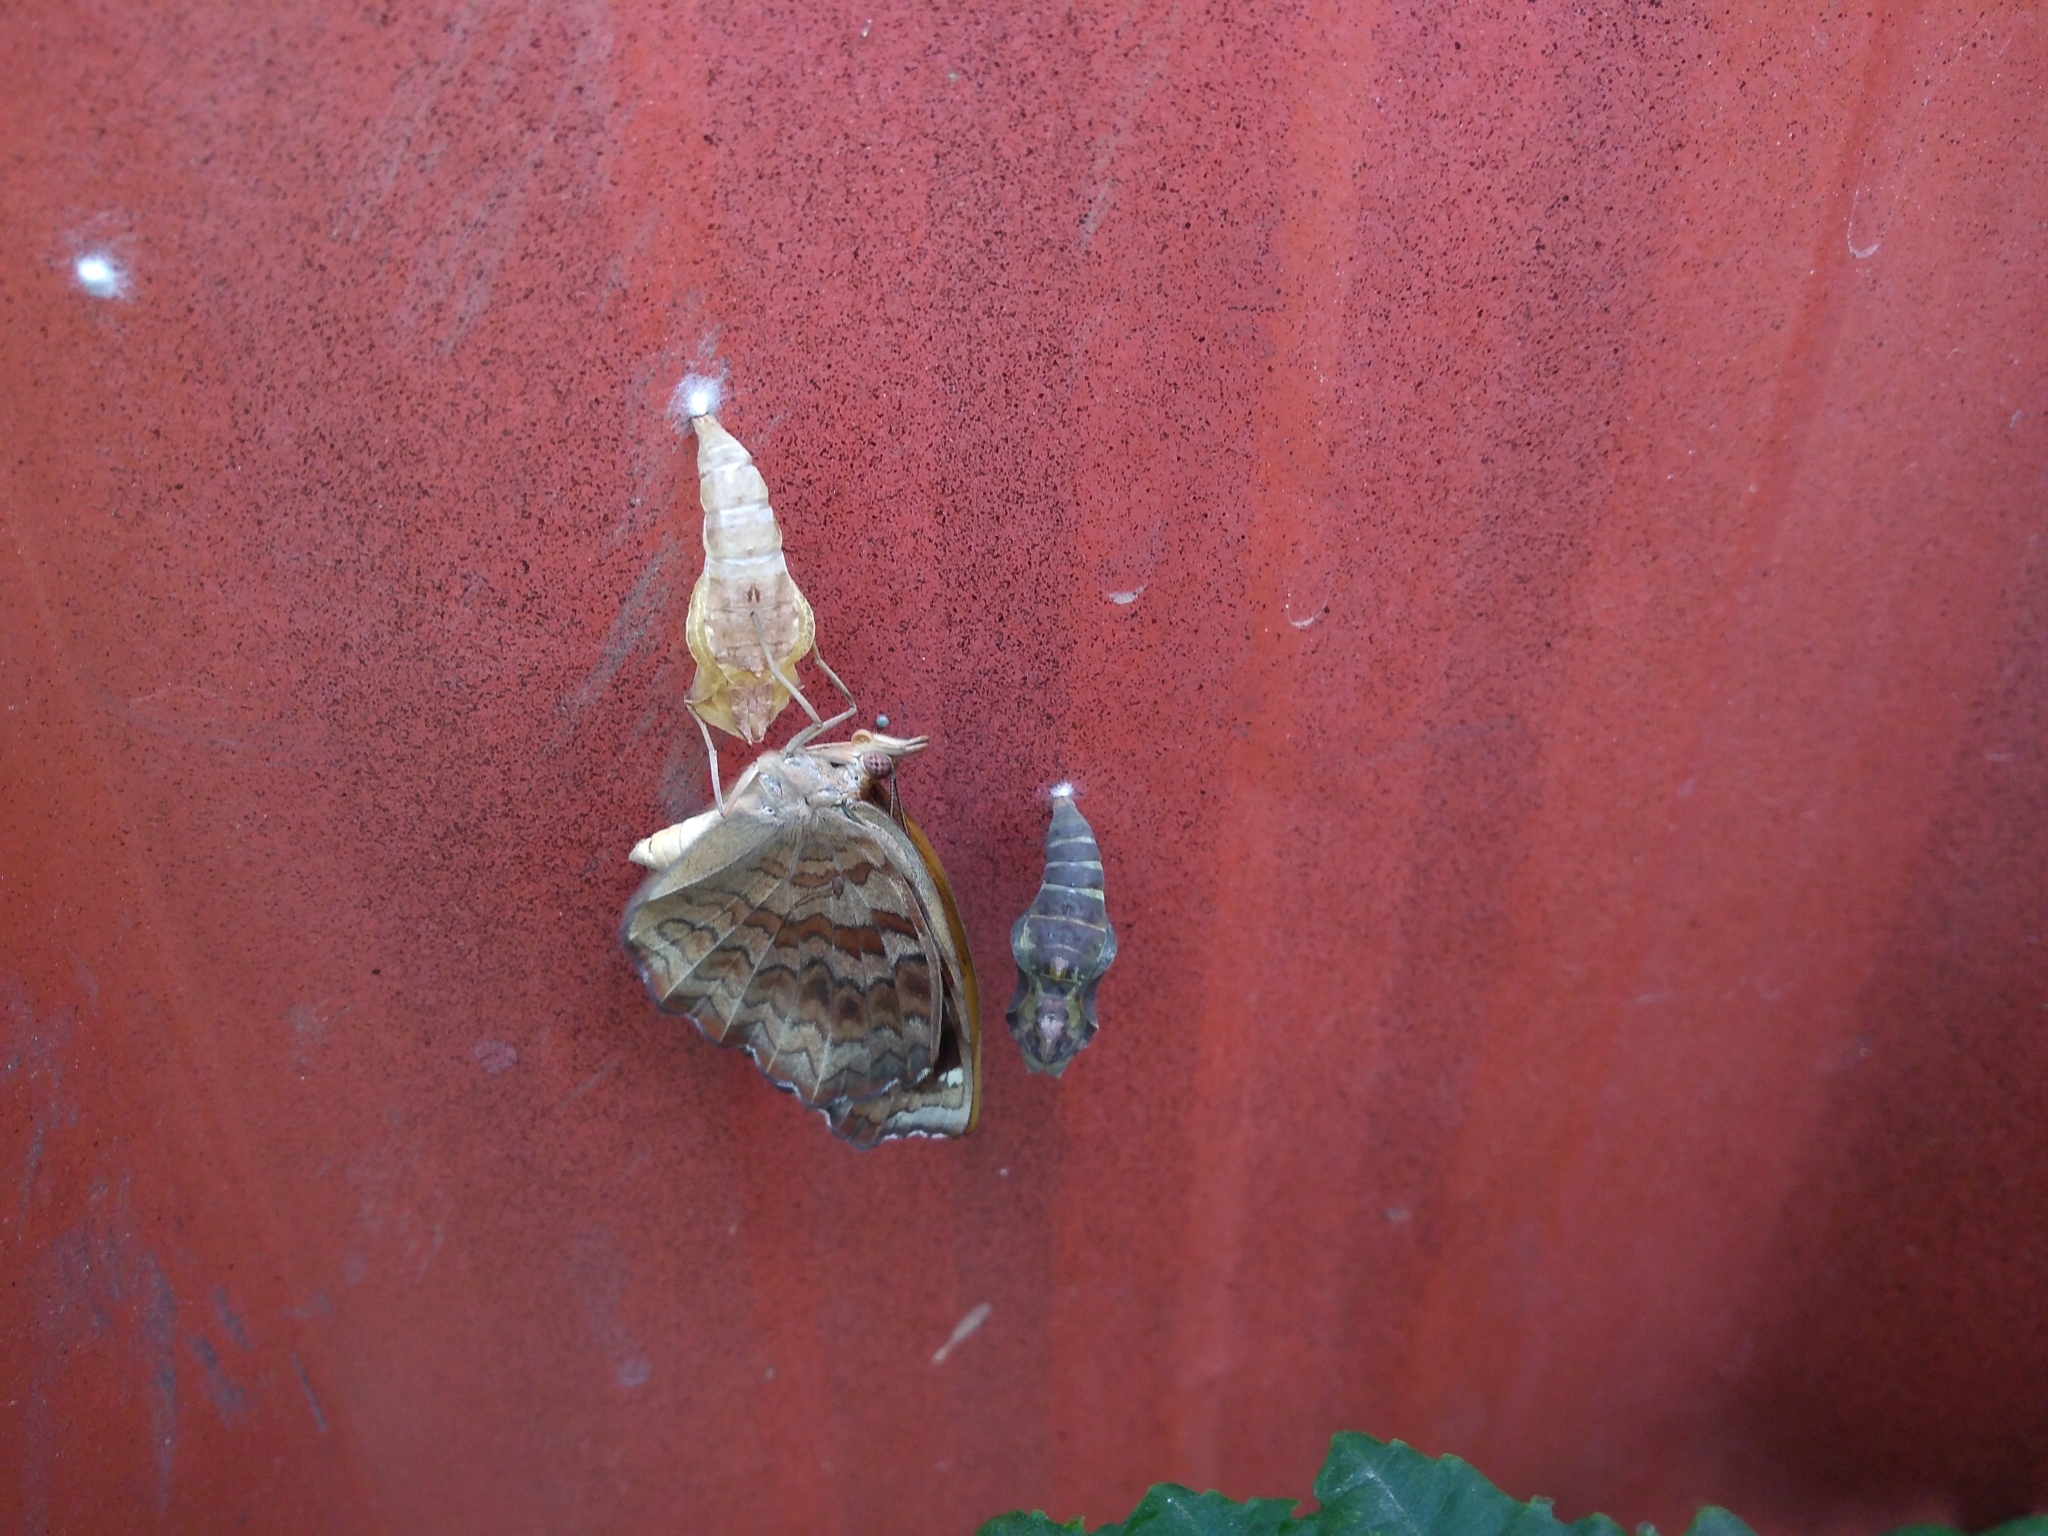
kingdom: Animalia
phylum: Arthropoda
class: Insecta
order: Lepidoptera
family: Nymphalidae
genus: Ariadne
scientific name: Ariadne ariadne
